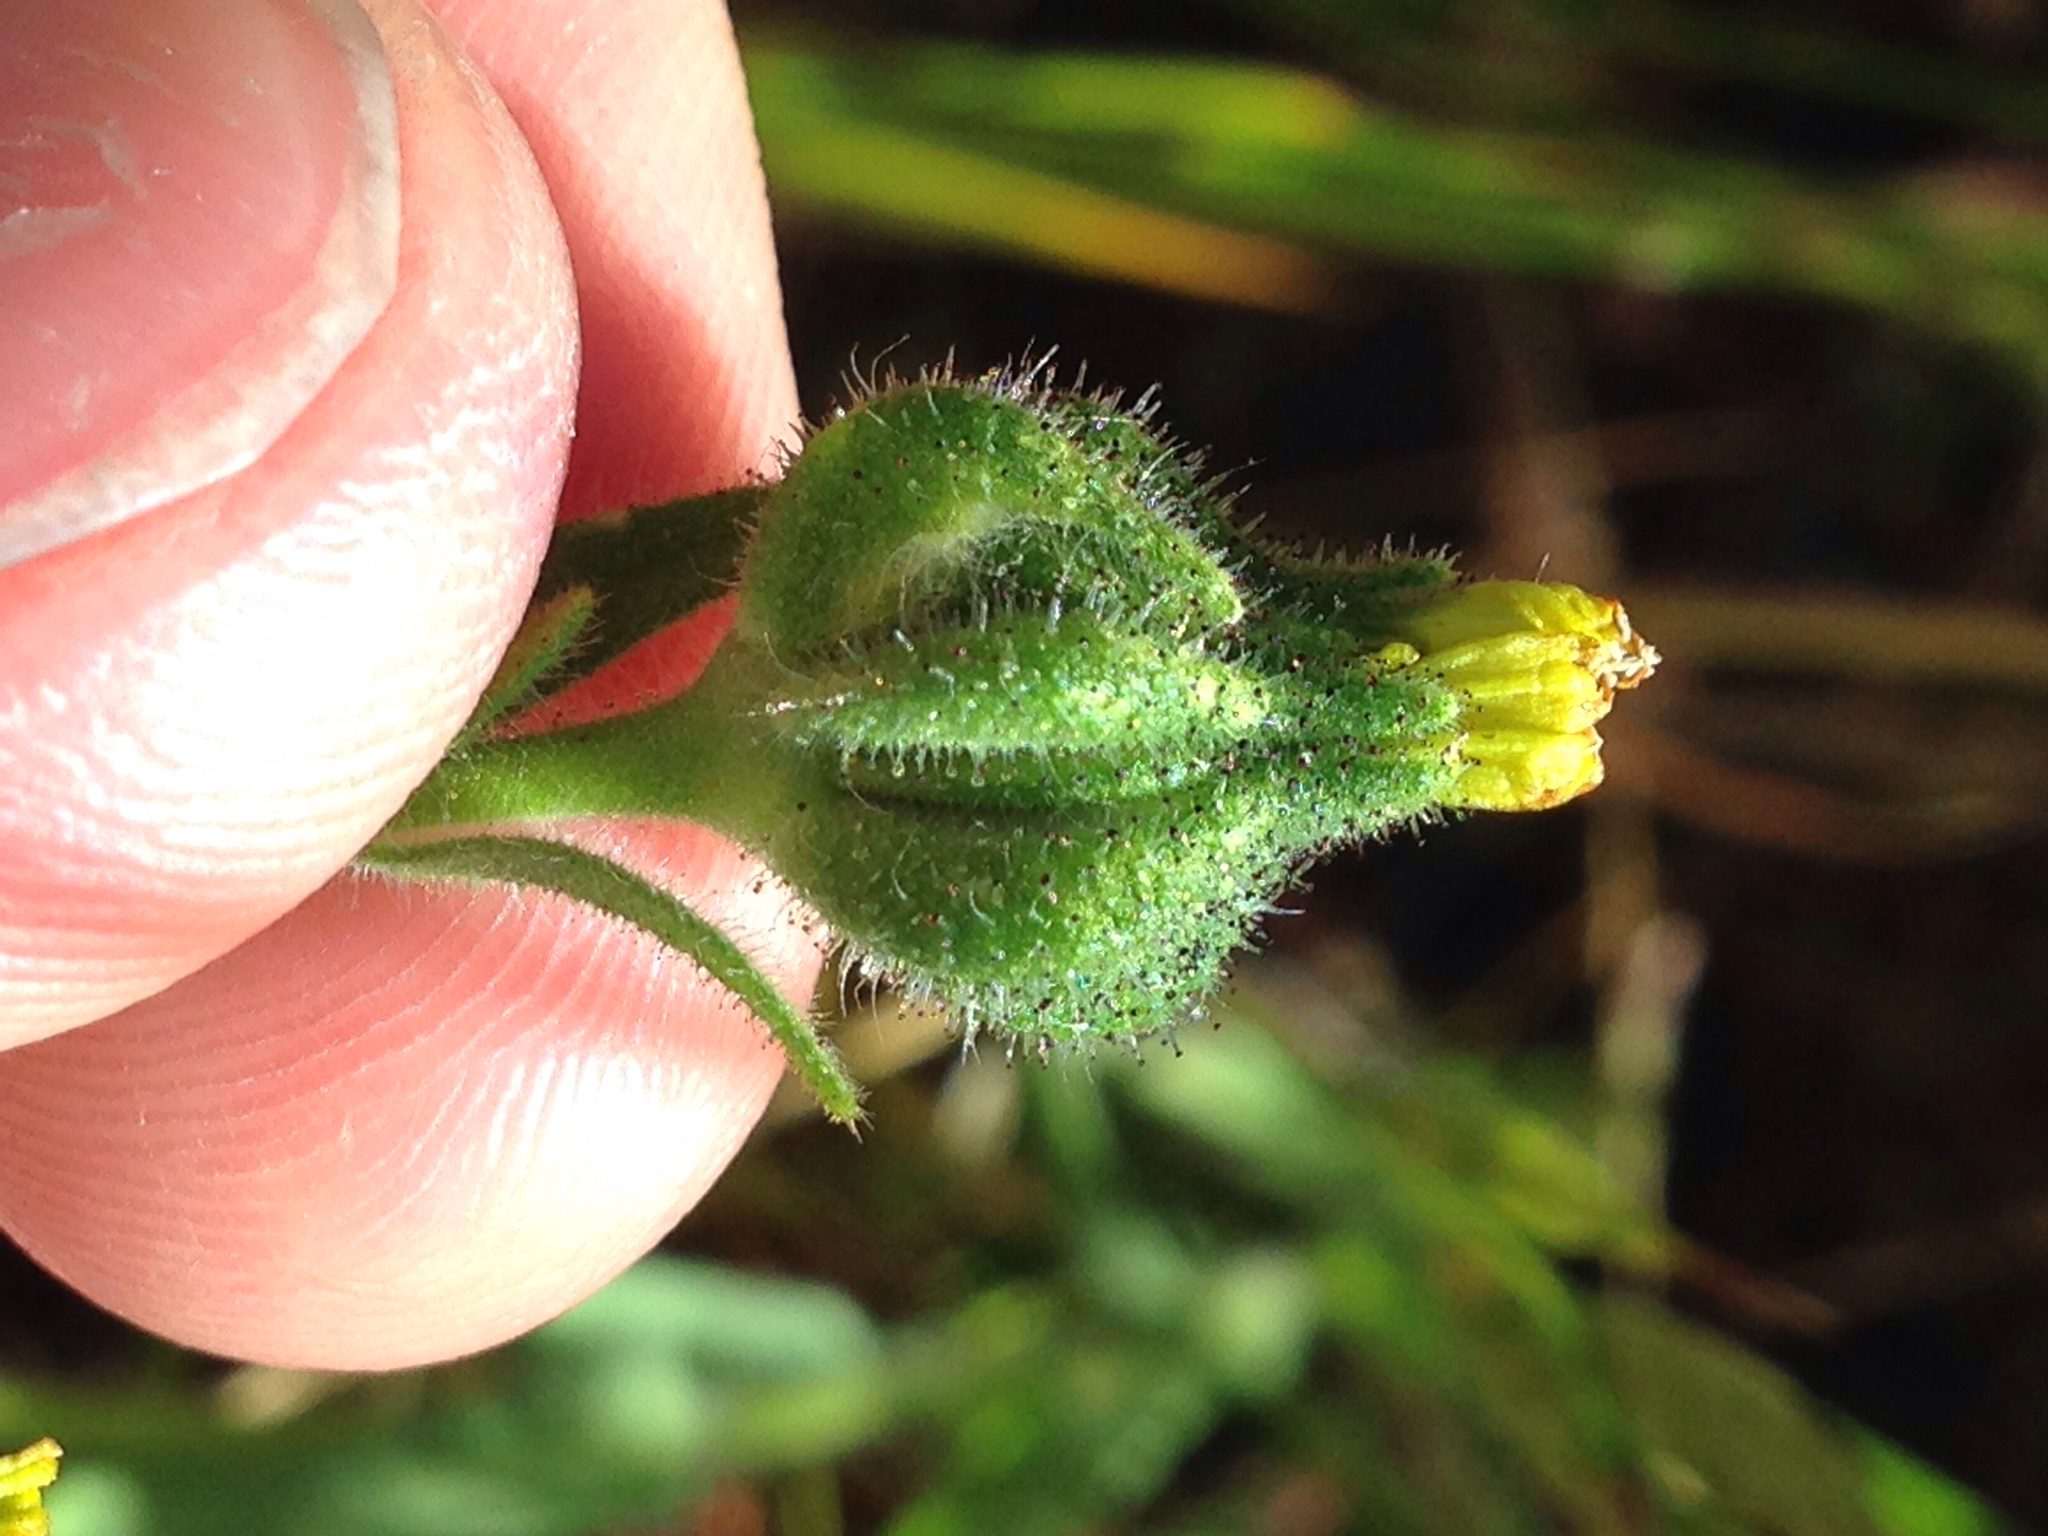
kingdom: Plantae
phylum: Tracheophyta
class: Magnoliopsida
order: Asterales
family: Asteraceae
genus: Madia
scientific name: Madia gracilis
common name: Grassy tarweed
